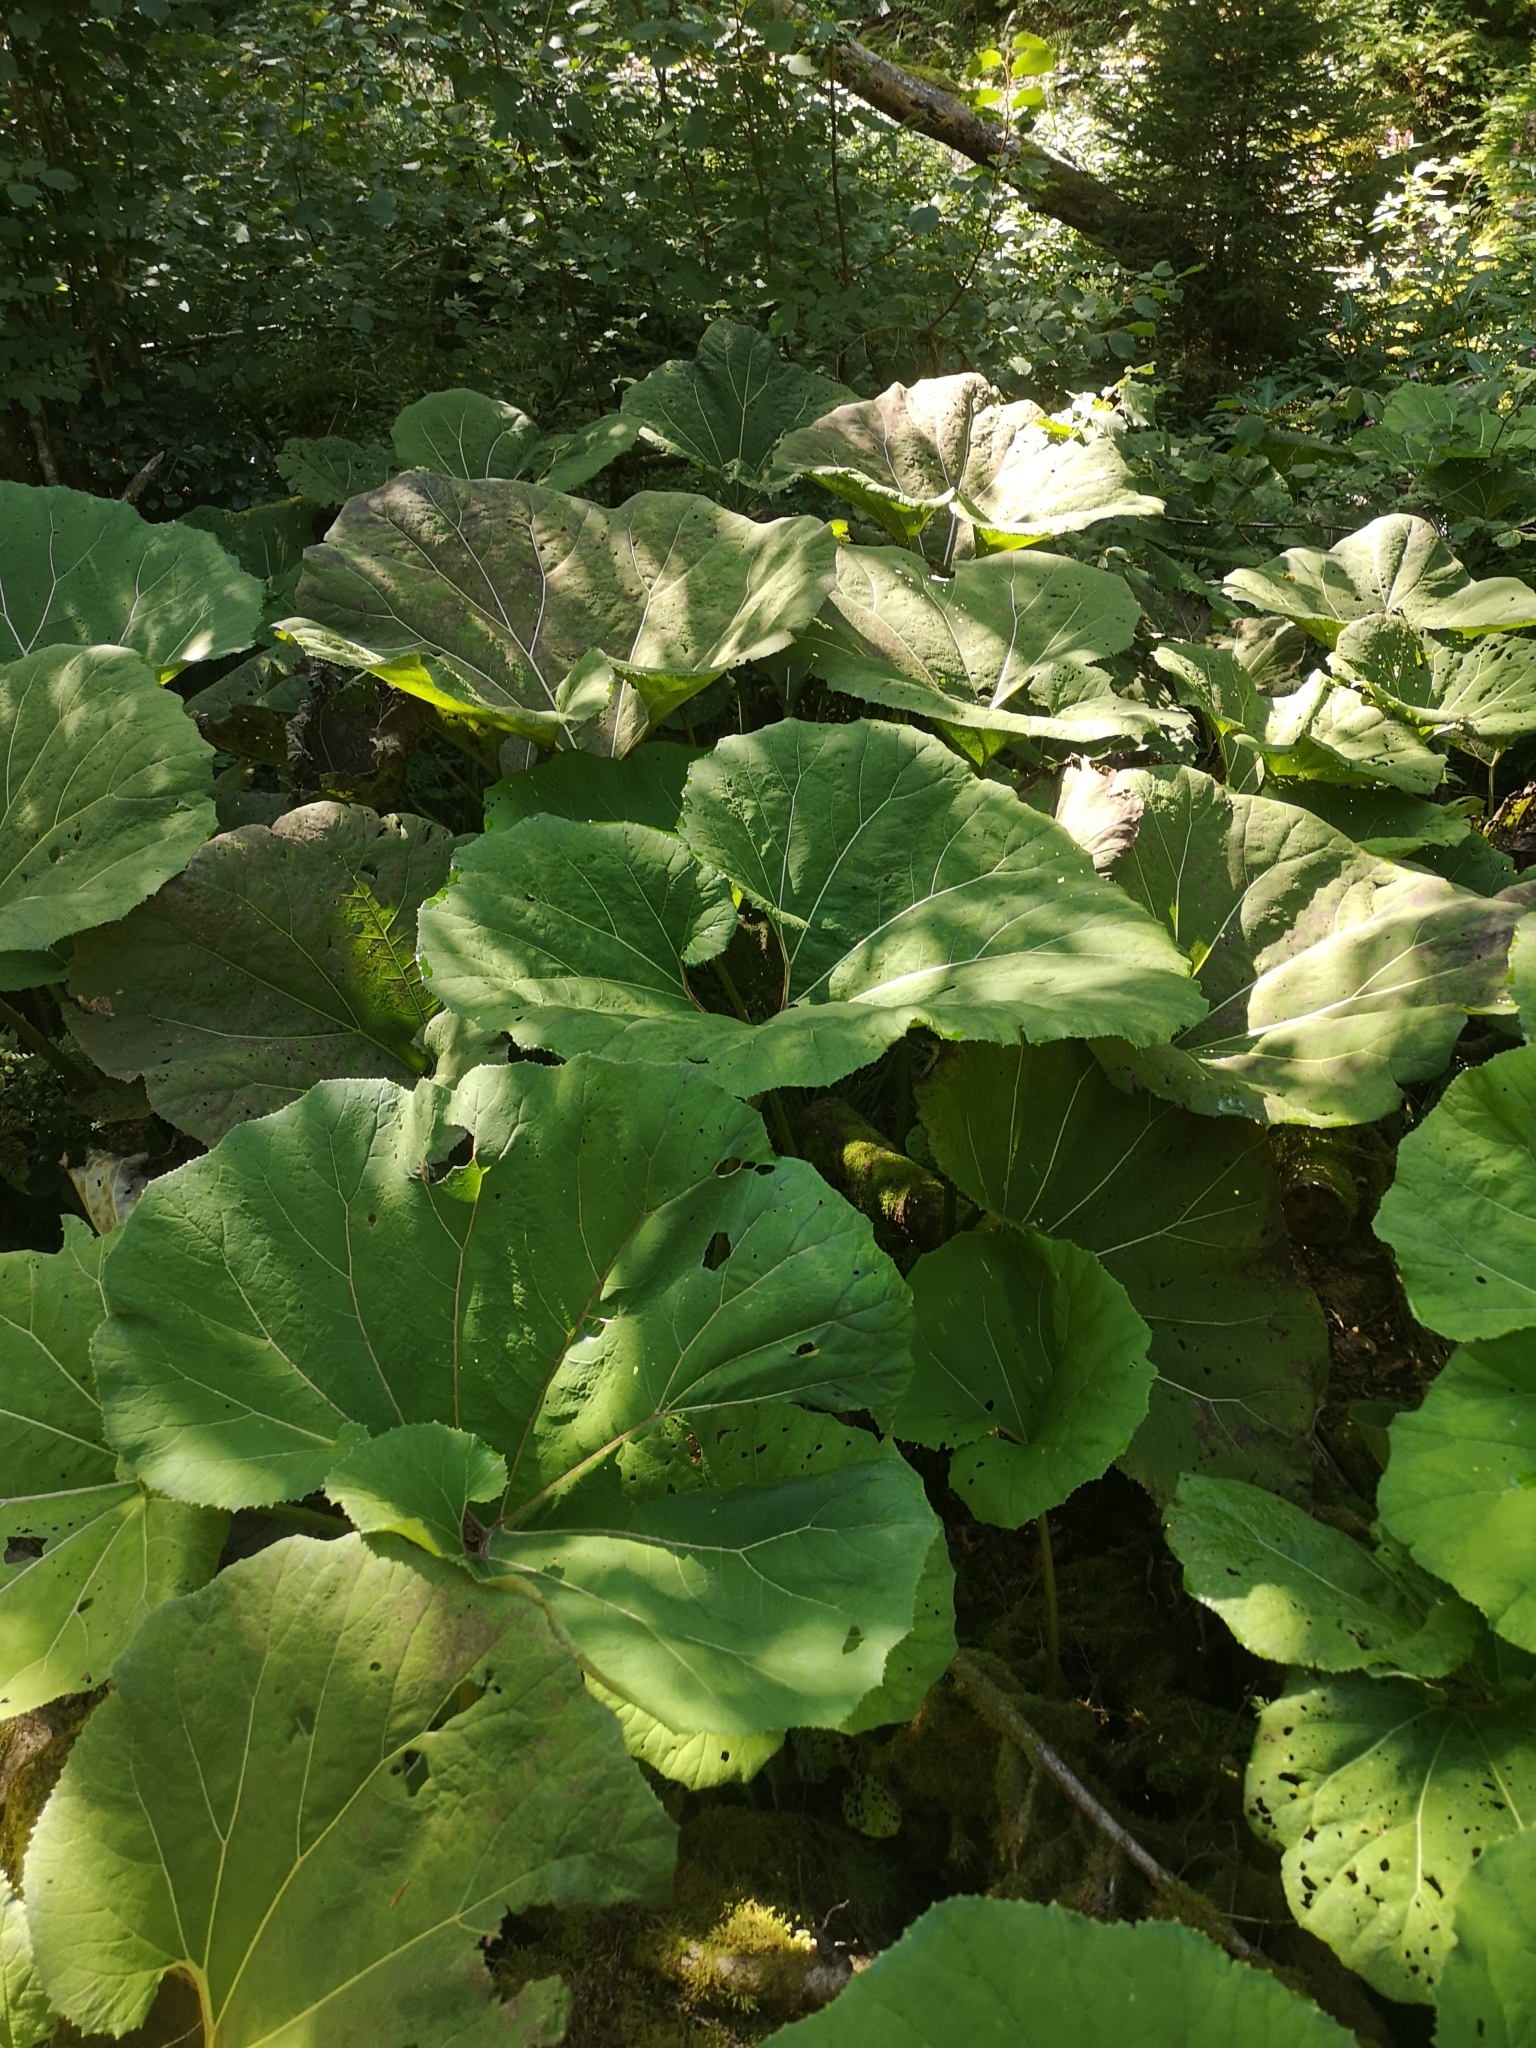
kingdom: Plantae
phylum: Tracheophyta
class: Magnoliopsida
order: Asterales
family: Asteraceae
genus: Petasites
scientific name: Petasites hybridus
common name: Butterbur
